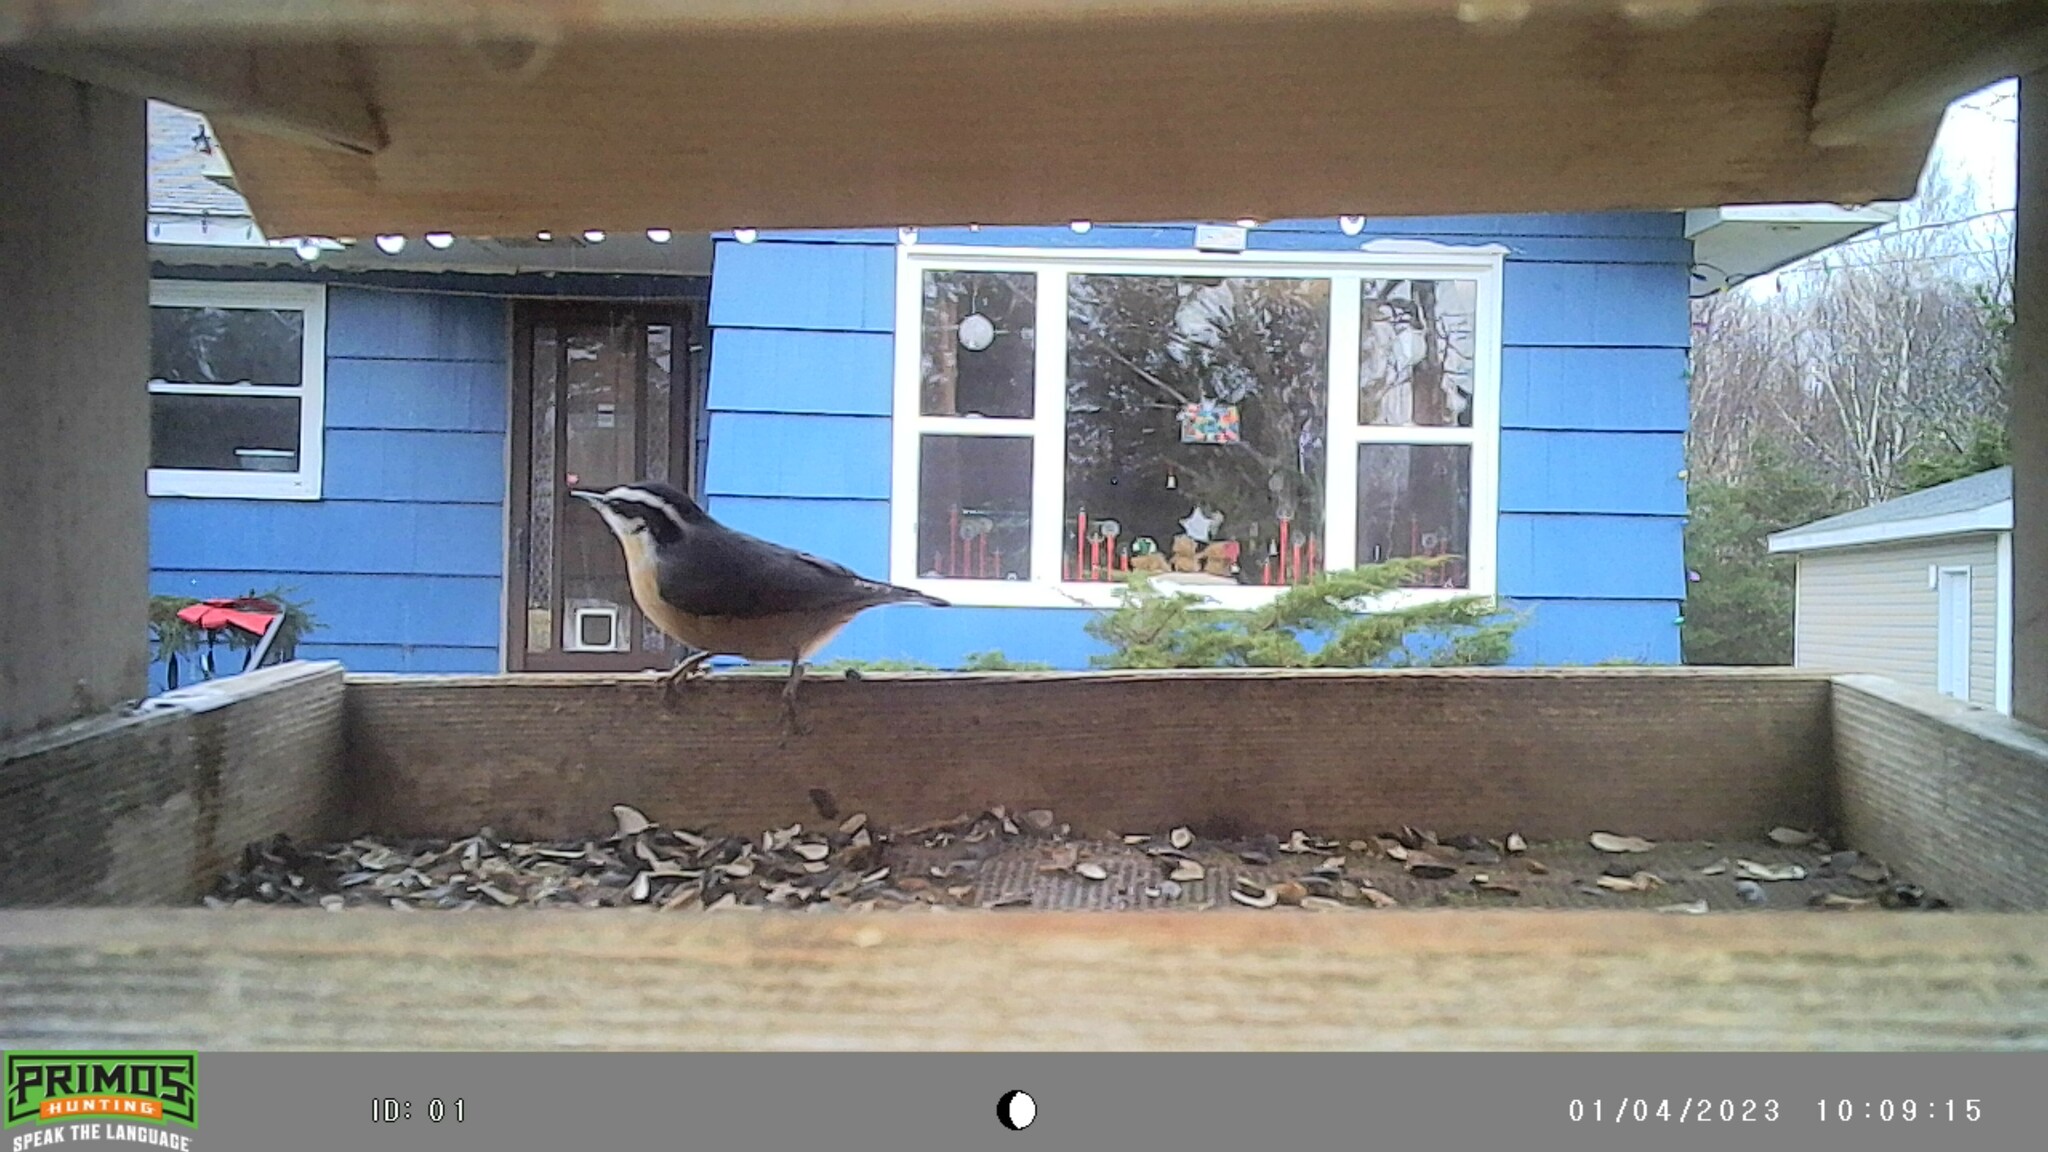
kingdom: Animalia
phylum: Chordata
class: Aves
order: Passeriformes
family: Sittidae
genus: Sitta
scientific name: Sitta canadensis
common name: Red-breasted nuthatch
